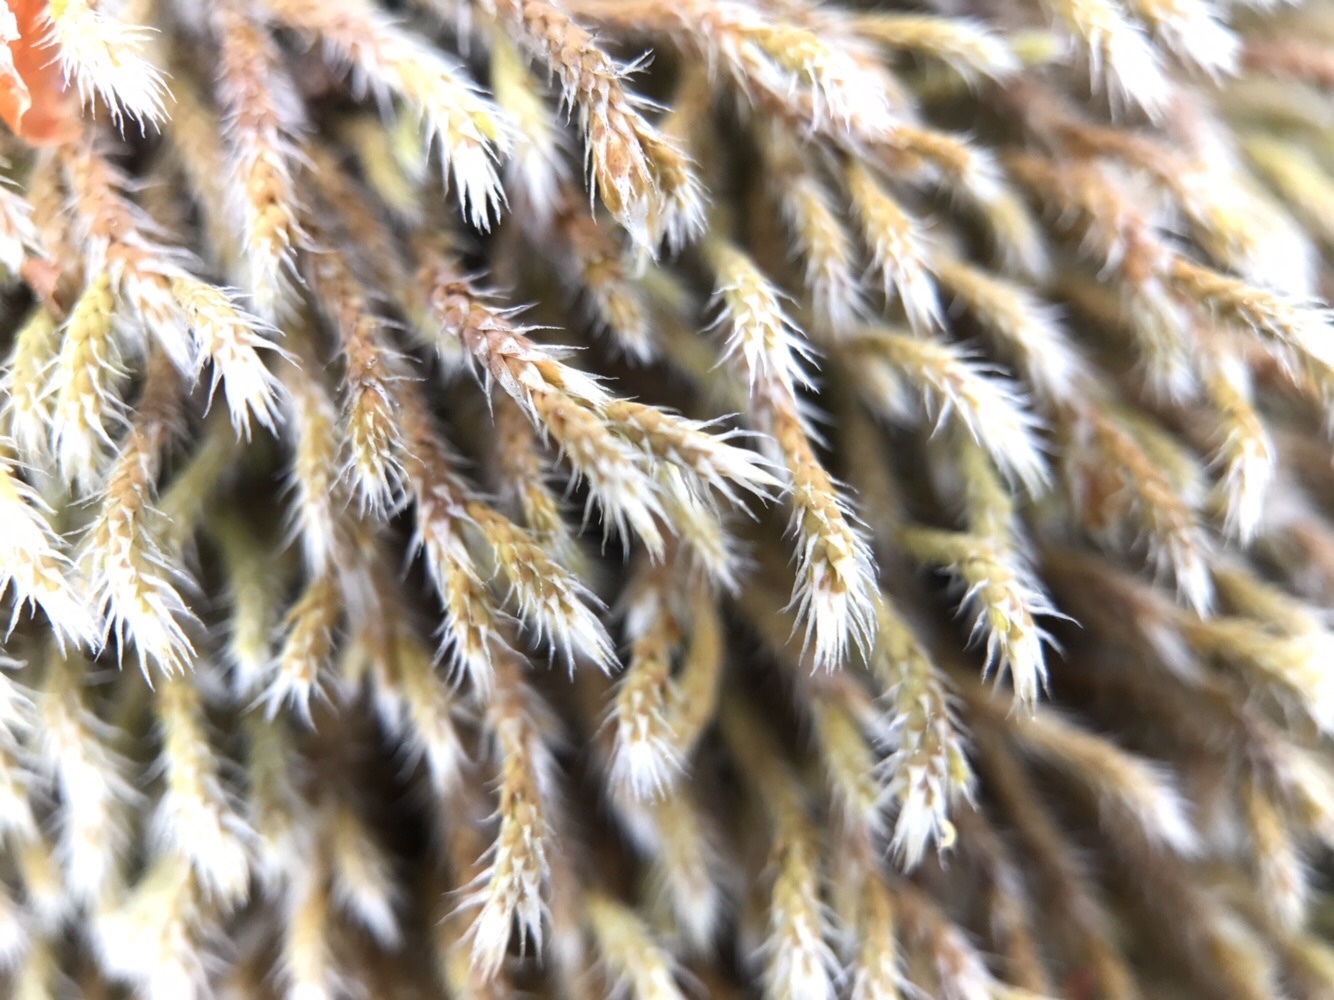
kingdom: Plantae
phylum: Bryophyta
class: Bryopsida
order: Hedwigiales
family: Hedwigiaceae
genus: Hedwigia
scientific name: Hedwigia stellata
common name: Starry hoar-moss
